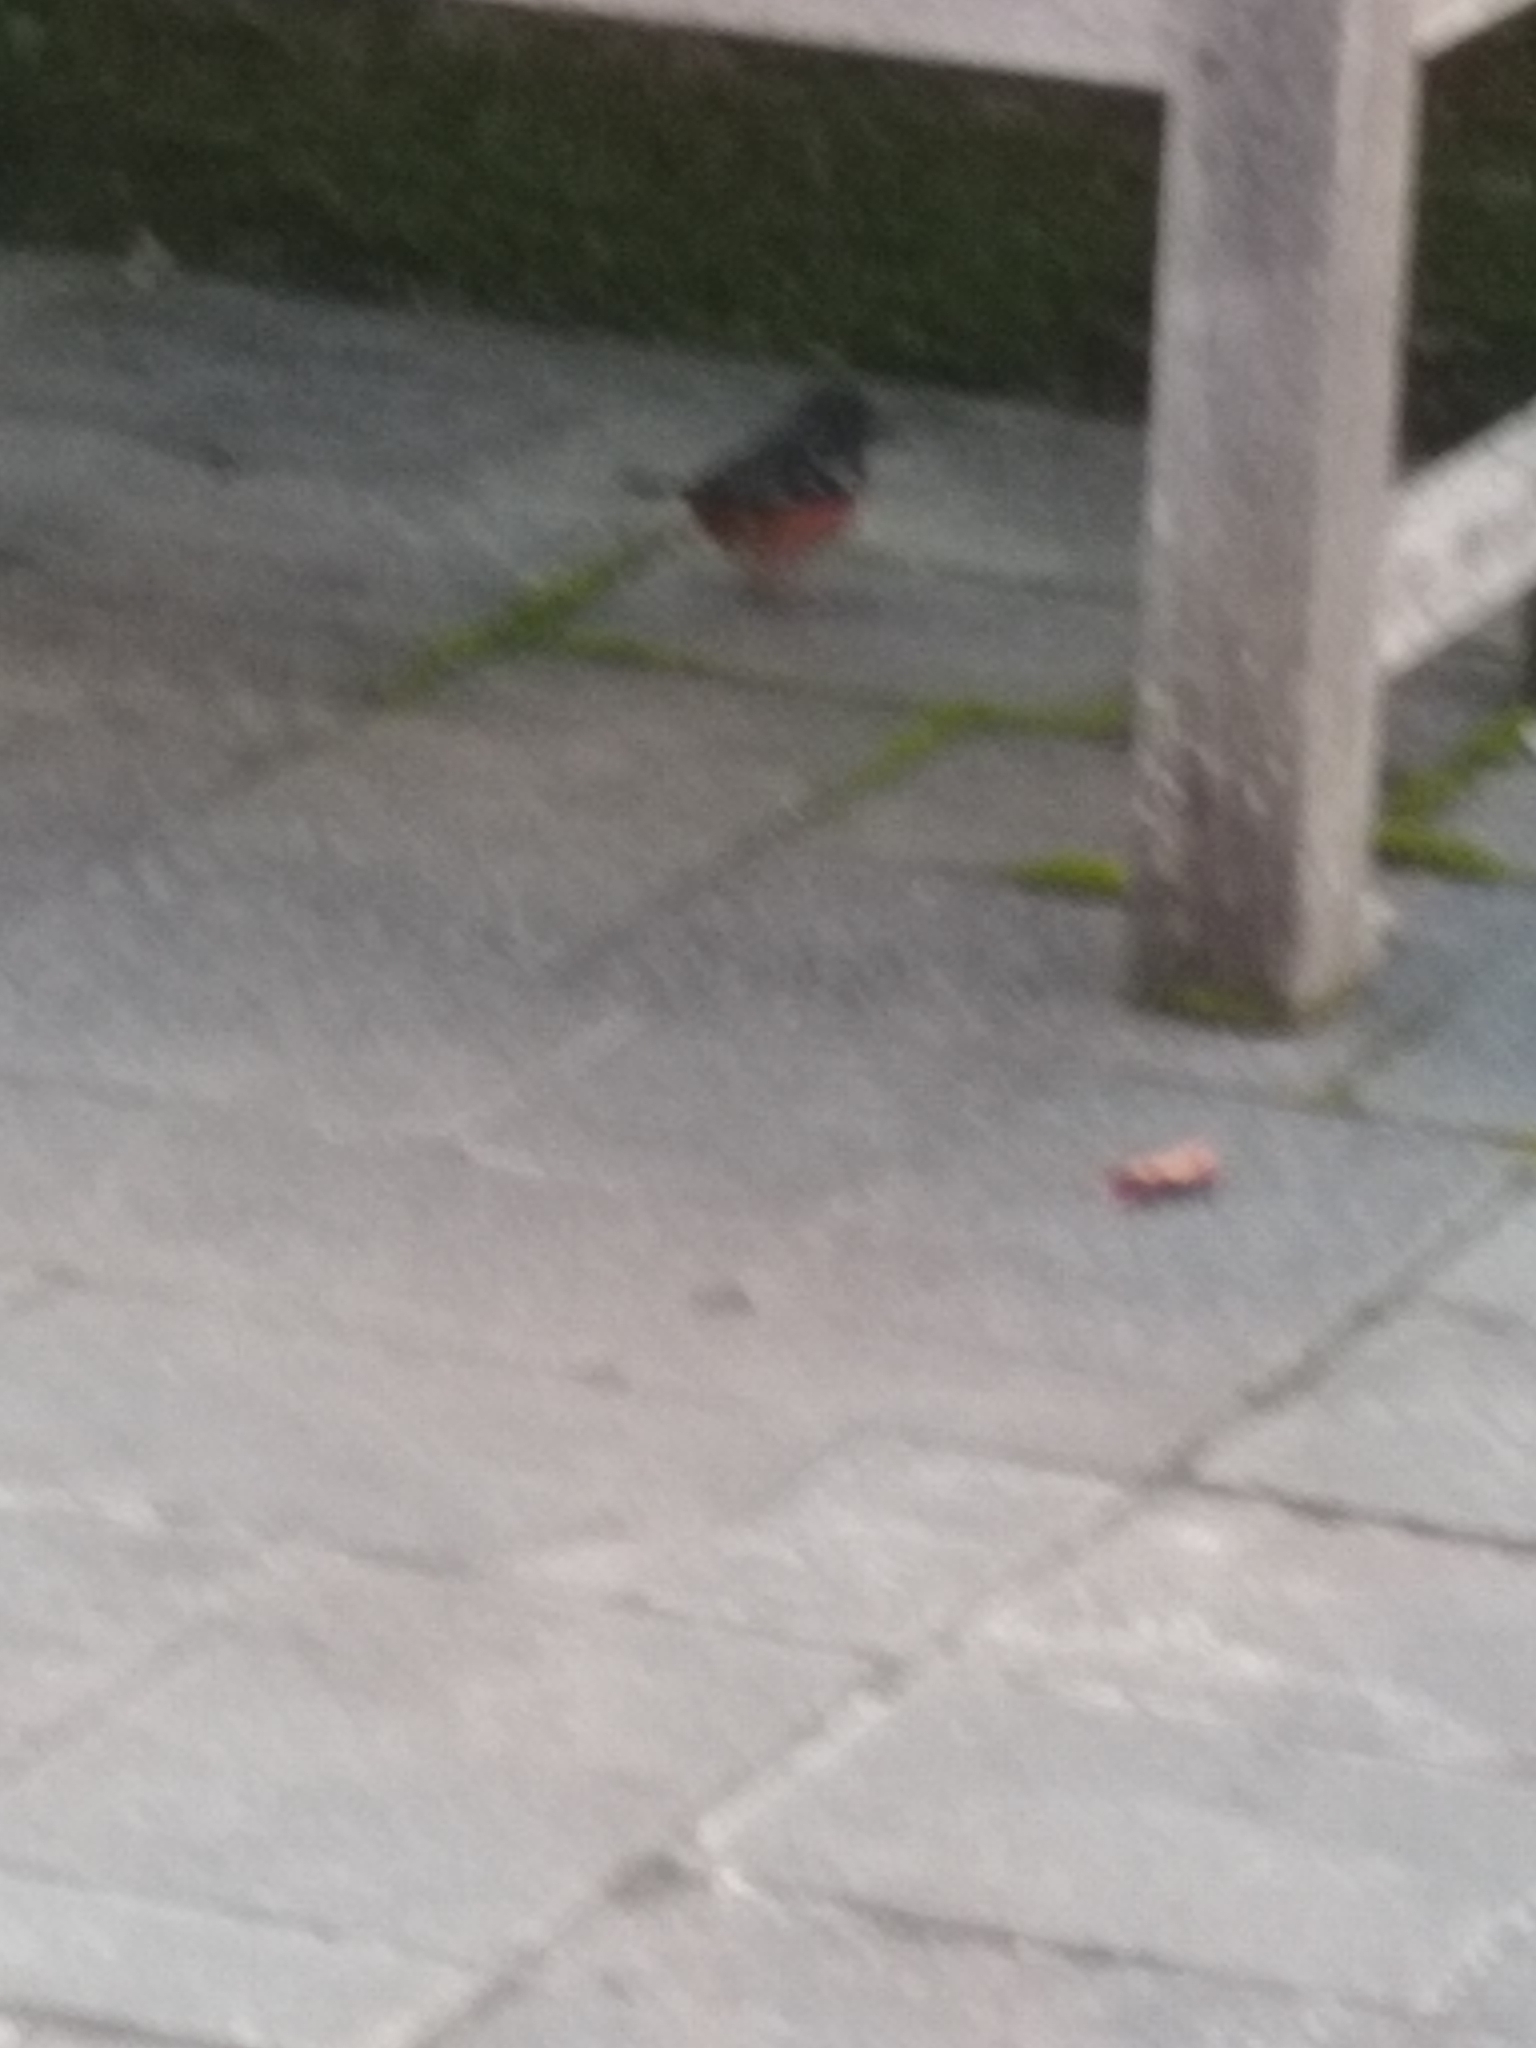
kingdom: Animalia
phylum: Chordata
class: Aves
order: Passeriformes
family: Passerellidae
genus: Pipilo
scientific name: Pipilo maculatus
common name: Spotted towhee
